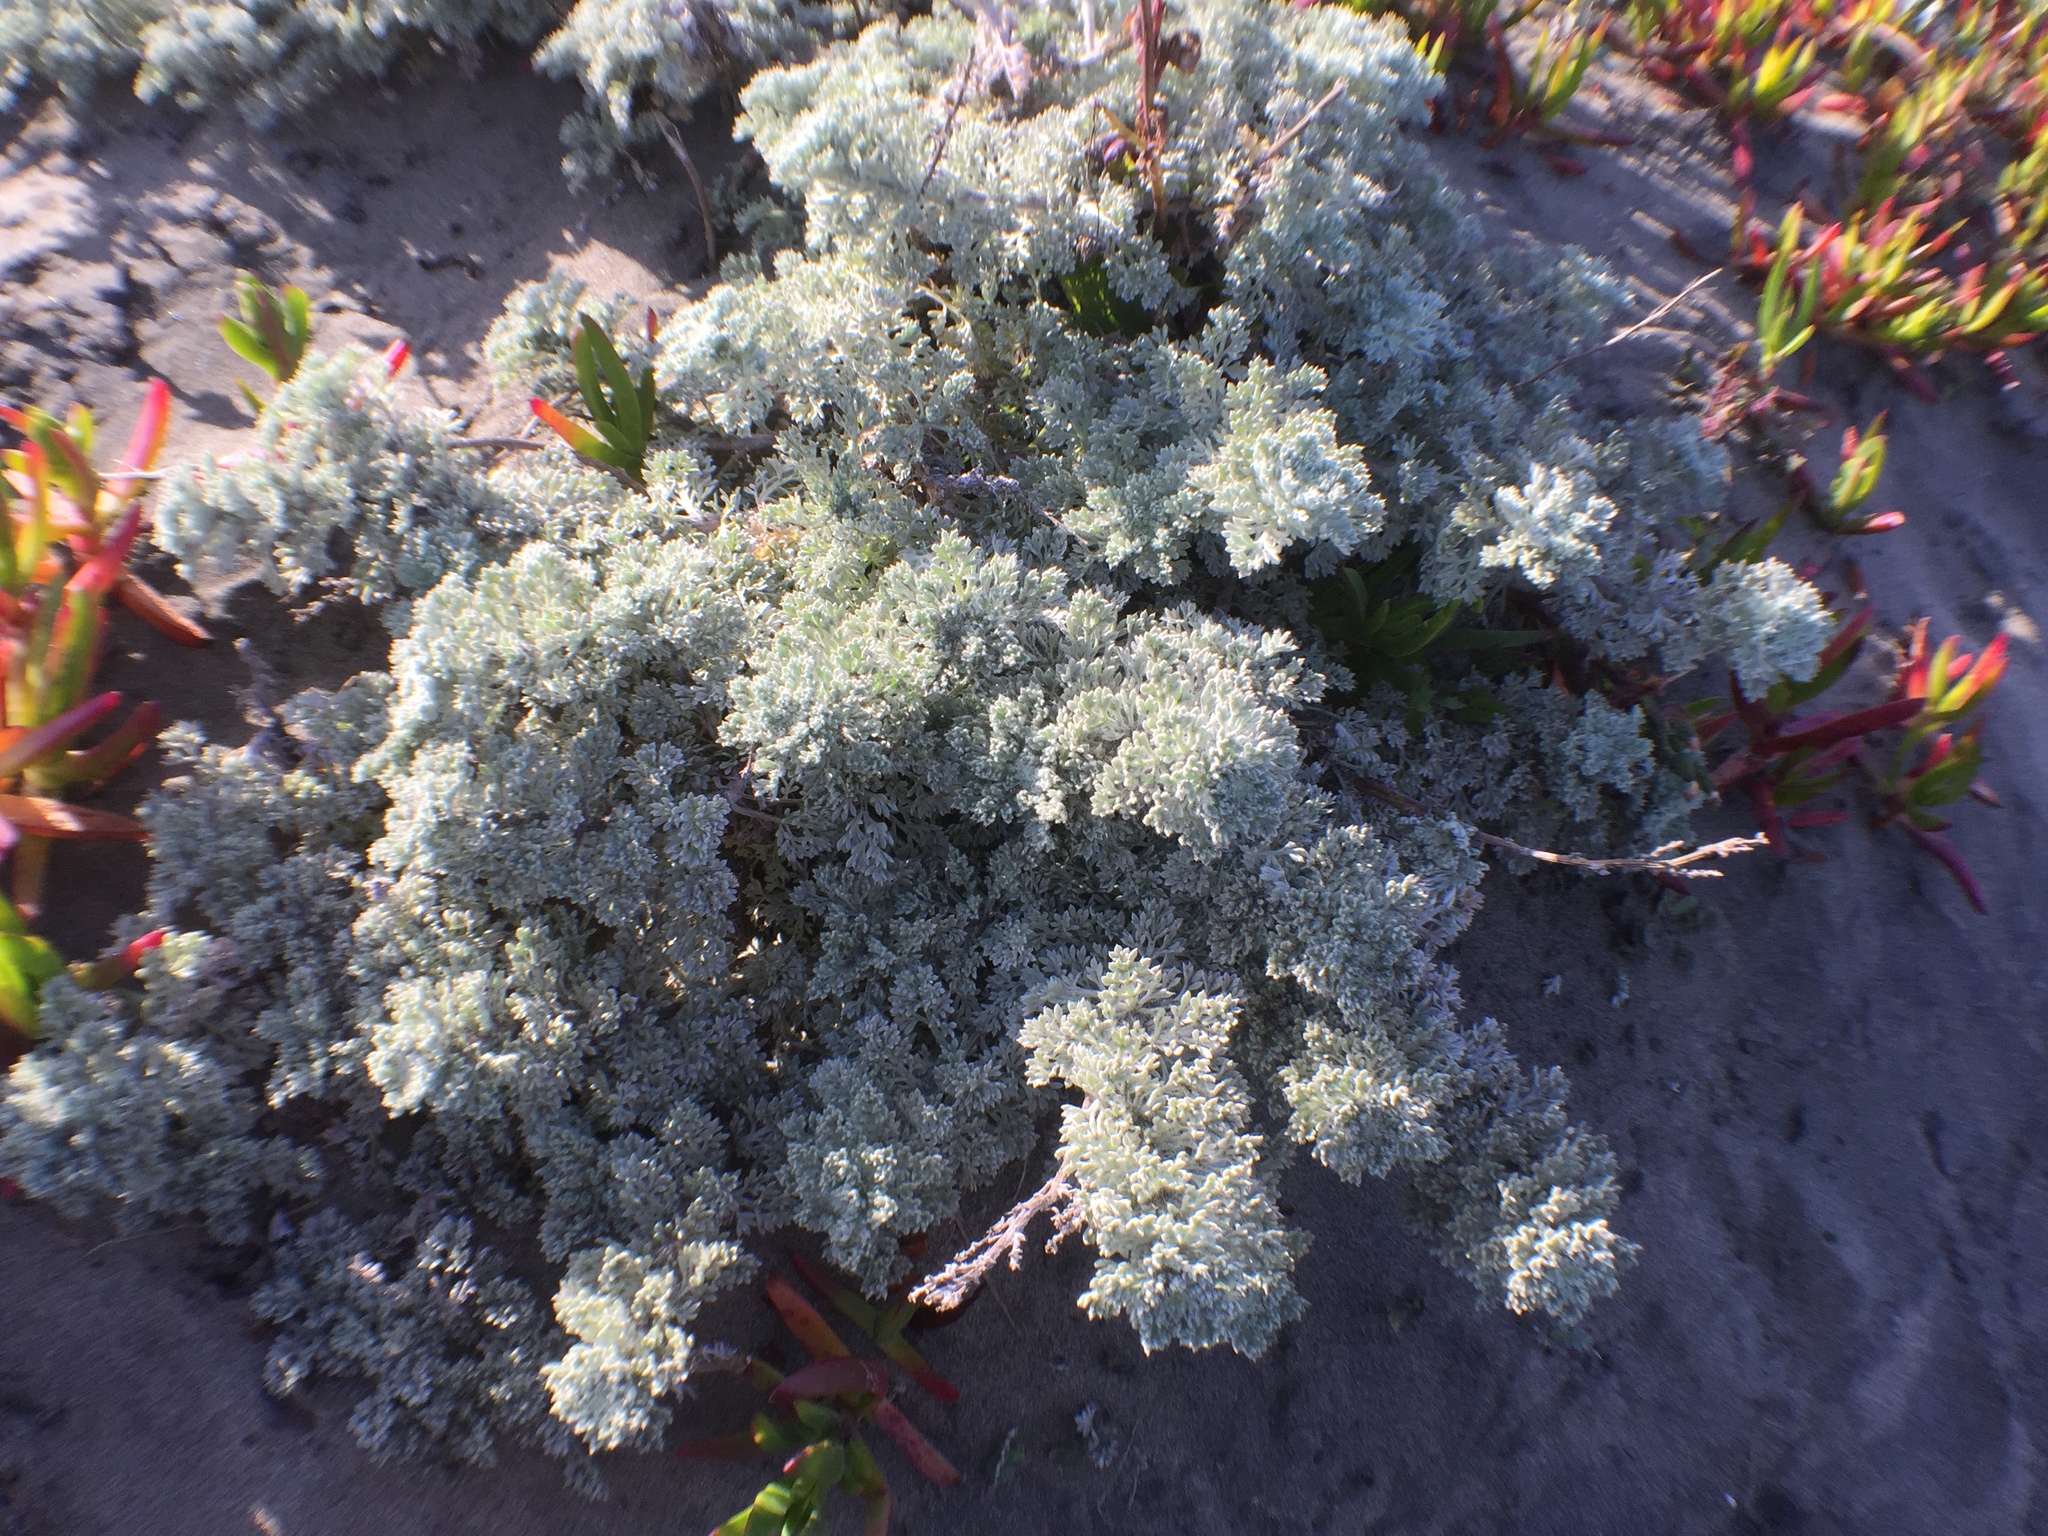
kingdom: Plantae
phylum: Tracheophyta
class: Magnoliopsida
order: Asterales
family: Asteraceae
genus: Artemisia
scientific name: Artemisia pycnocephala
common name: Coastal sagewort
